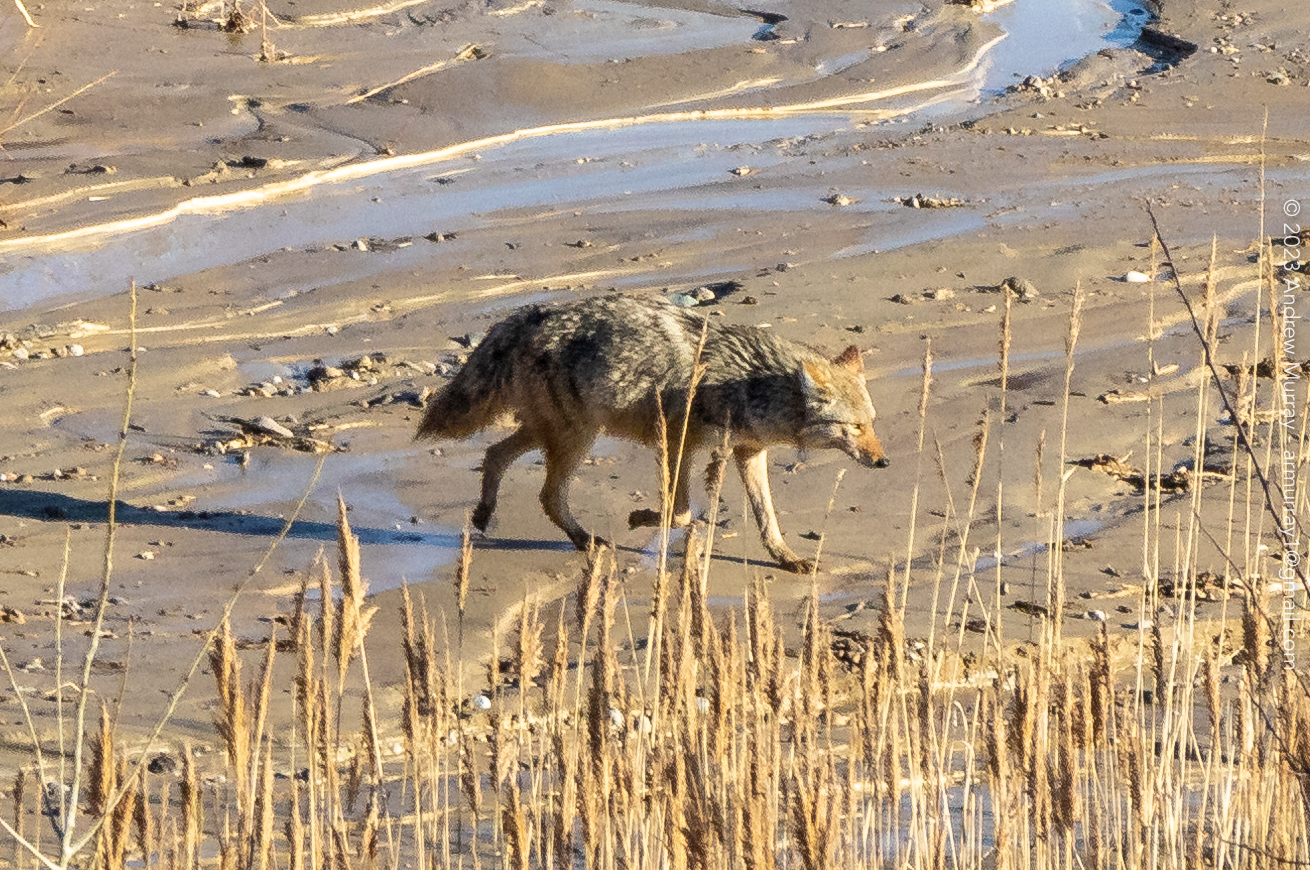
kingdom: Animalia
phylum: Chordata
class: Mammalia
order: Carnivora
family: Canidae
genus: Canis
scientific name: Canis latrans
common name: Coyote
